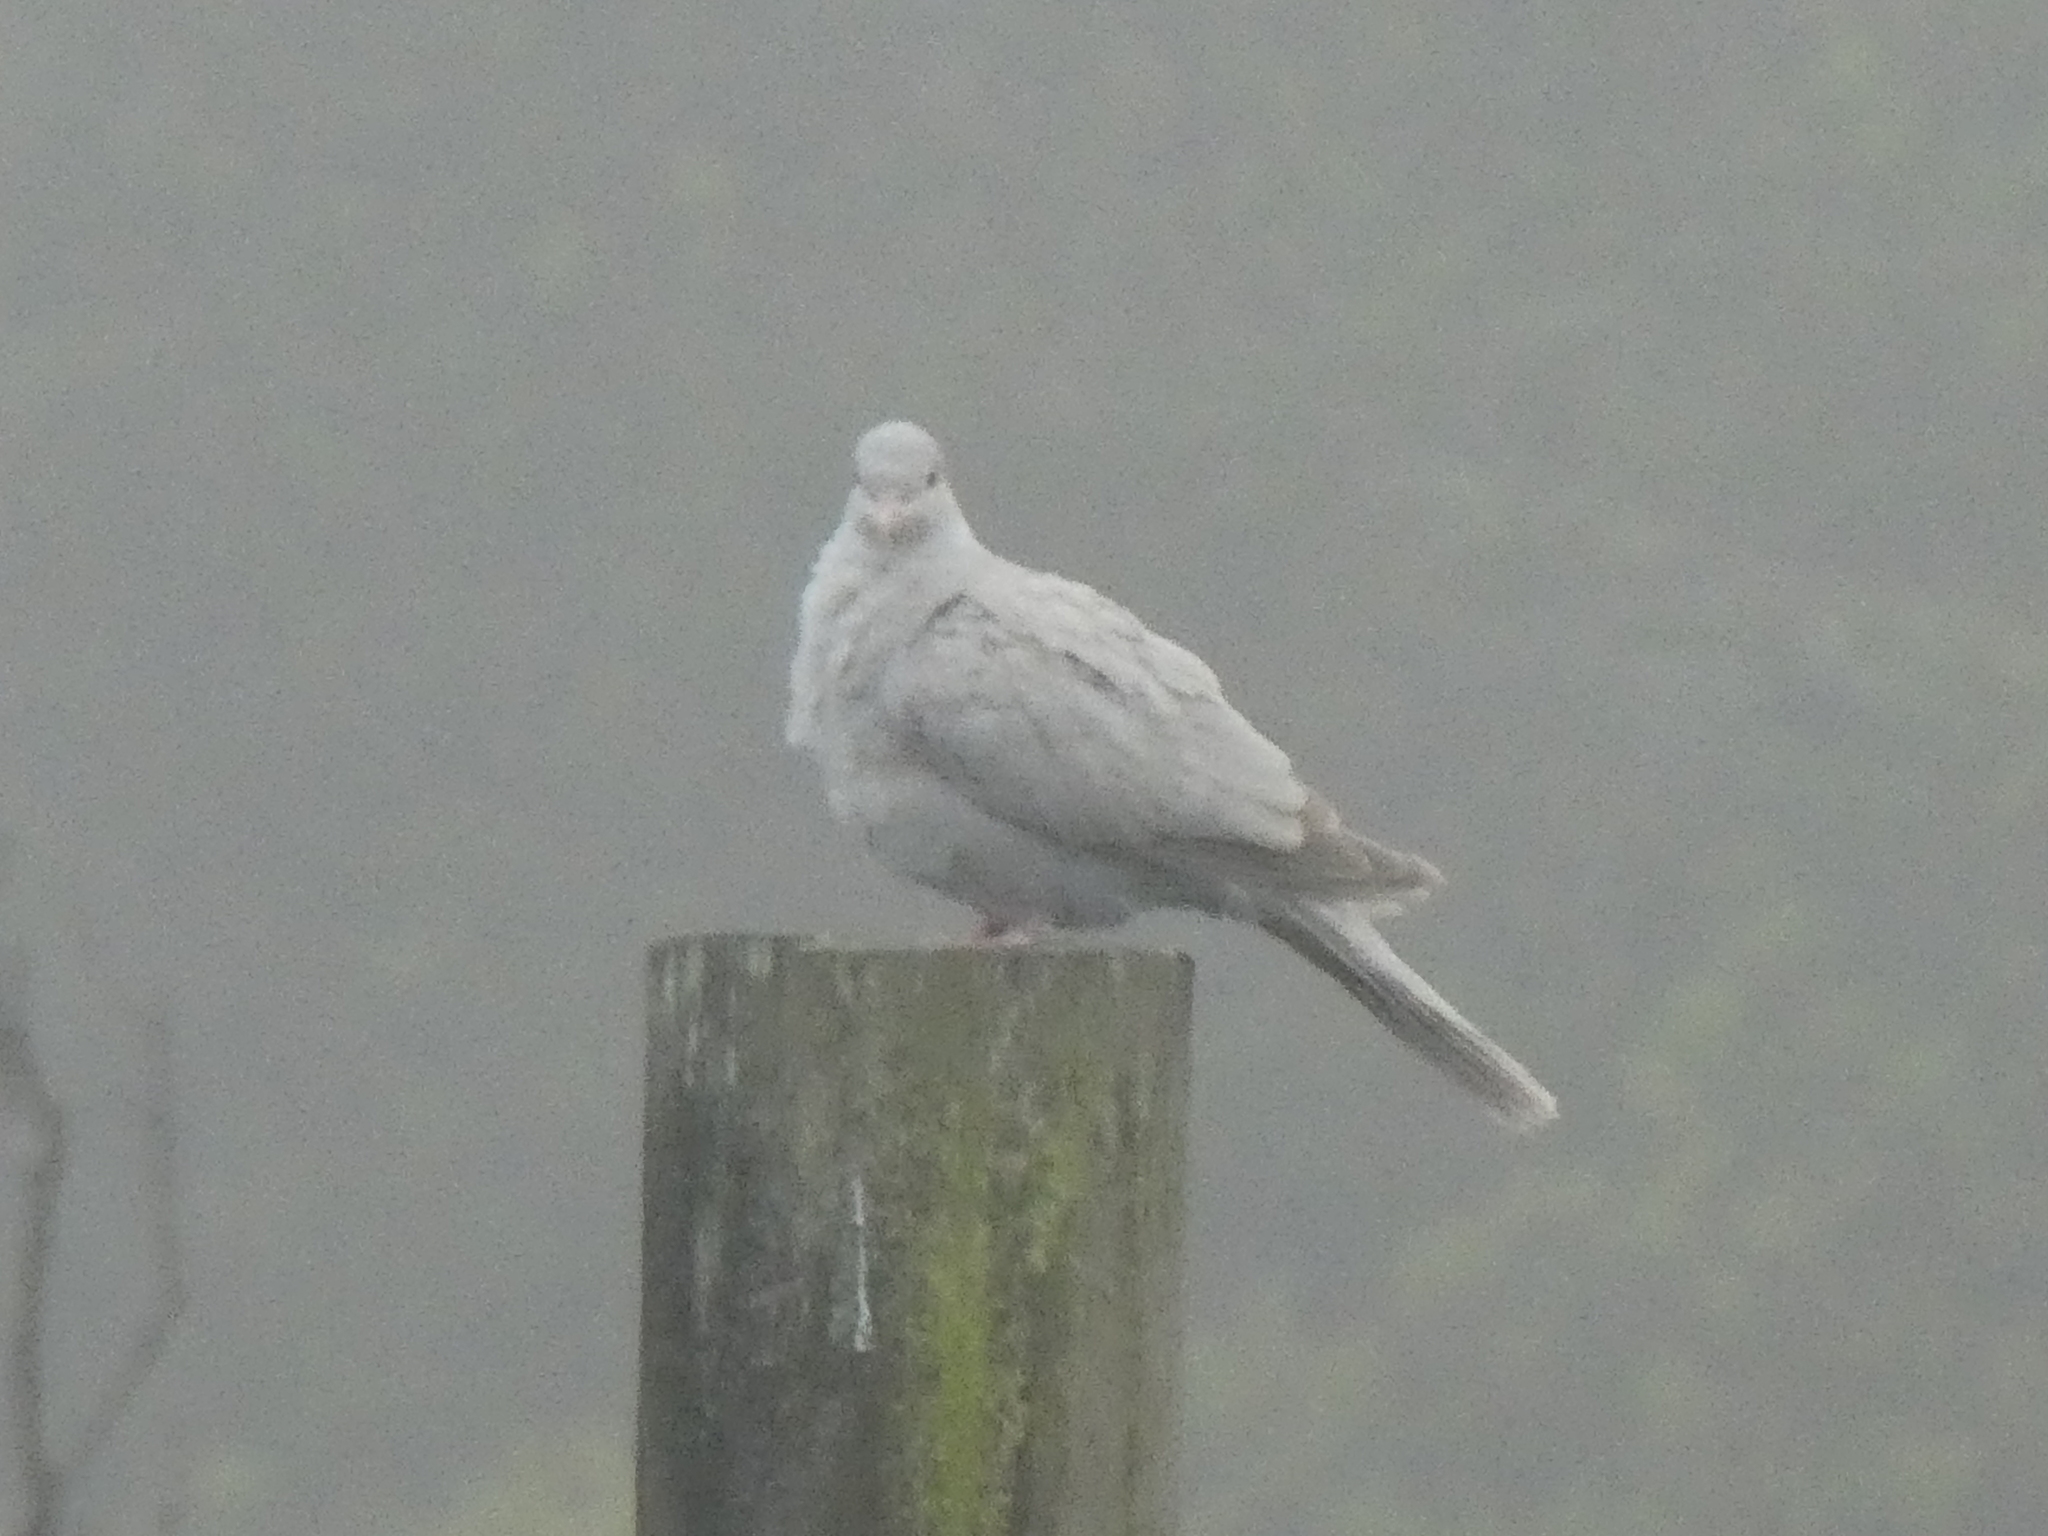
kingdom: Animalia
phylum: Chordata
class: Aves
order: Columbiformes
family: Columbidae
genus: Streptopelia
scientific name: Streptopelia decaocto
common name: Eurasian collared dove
